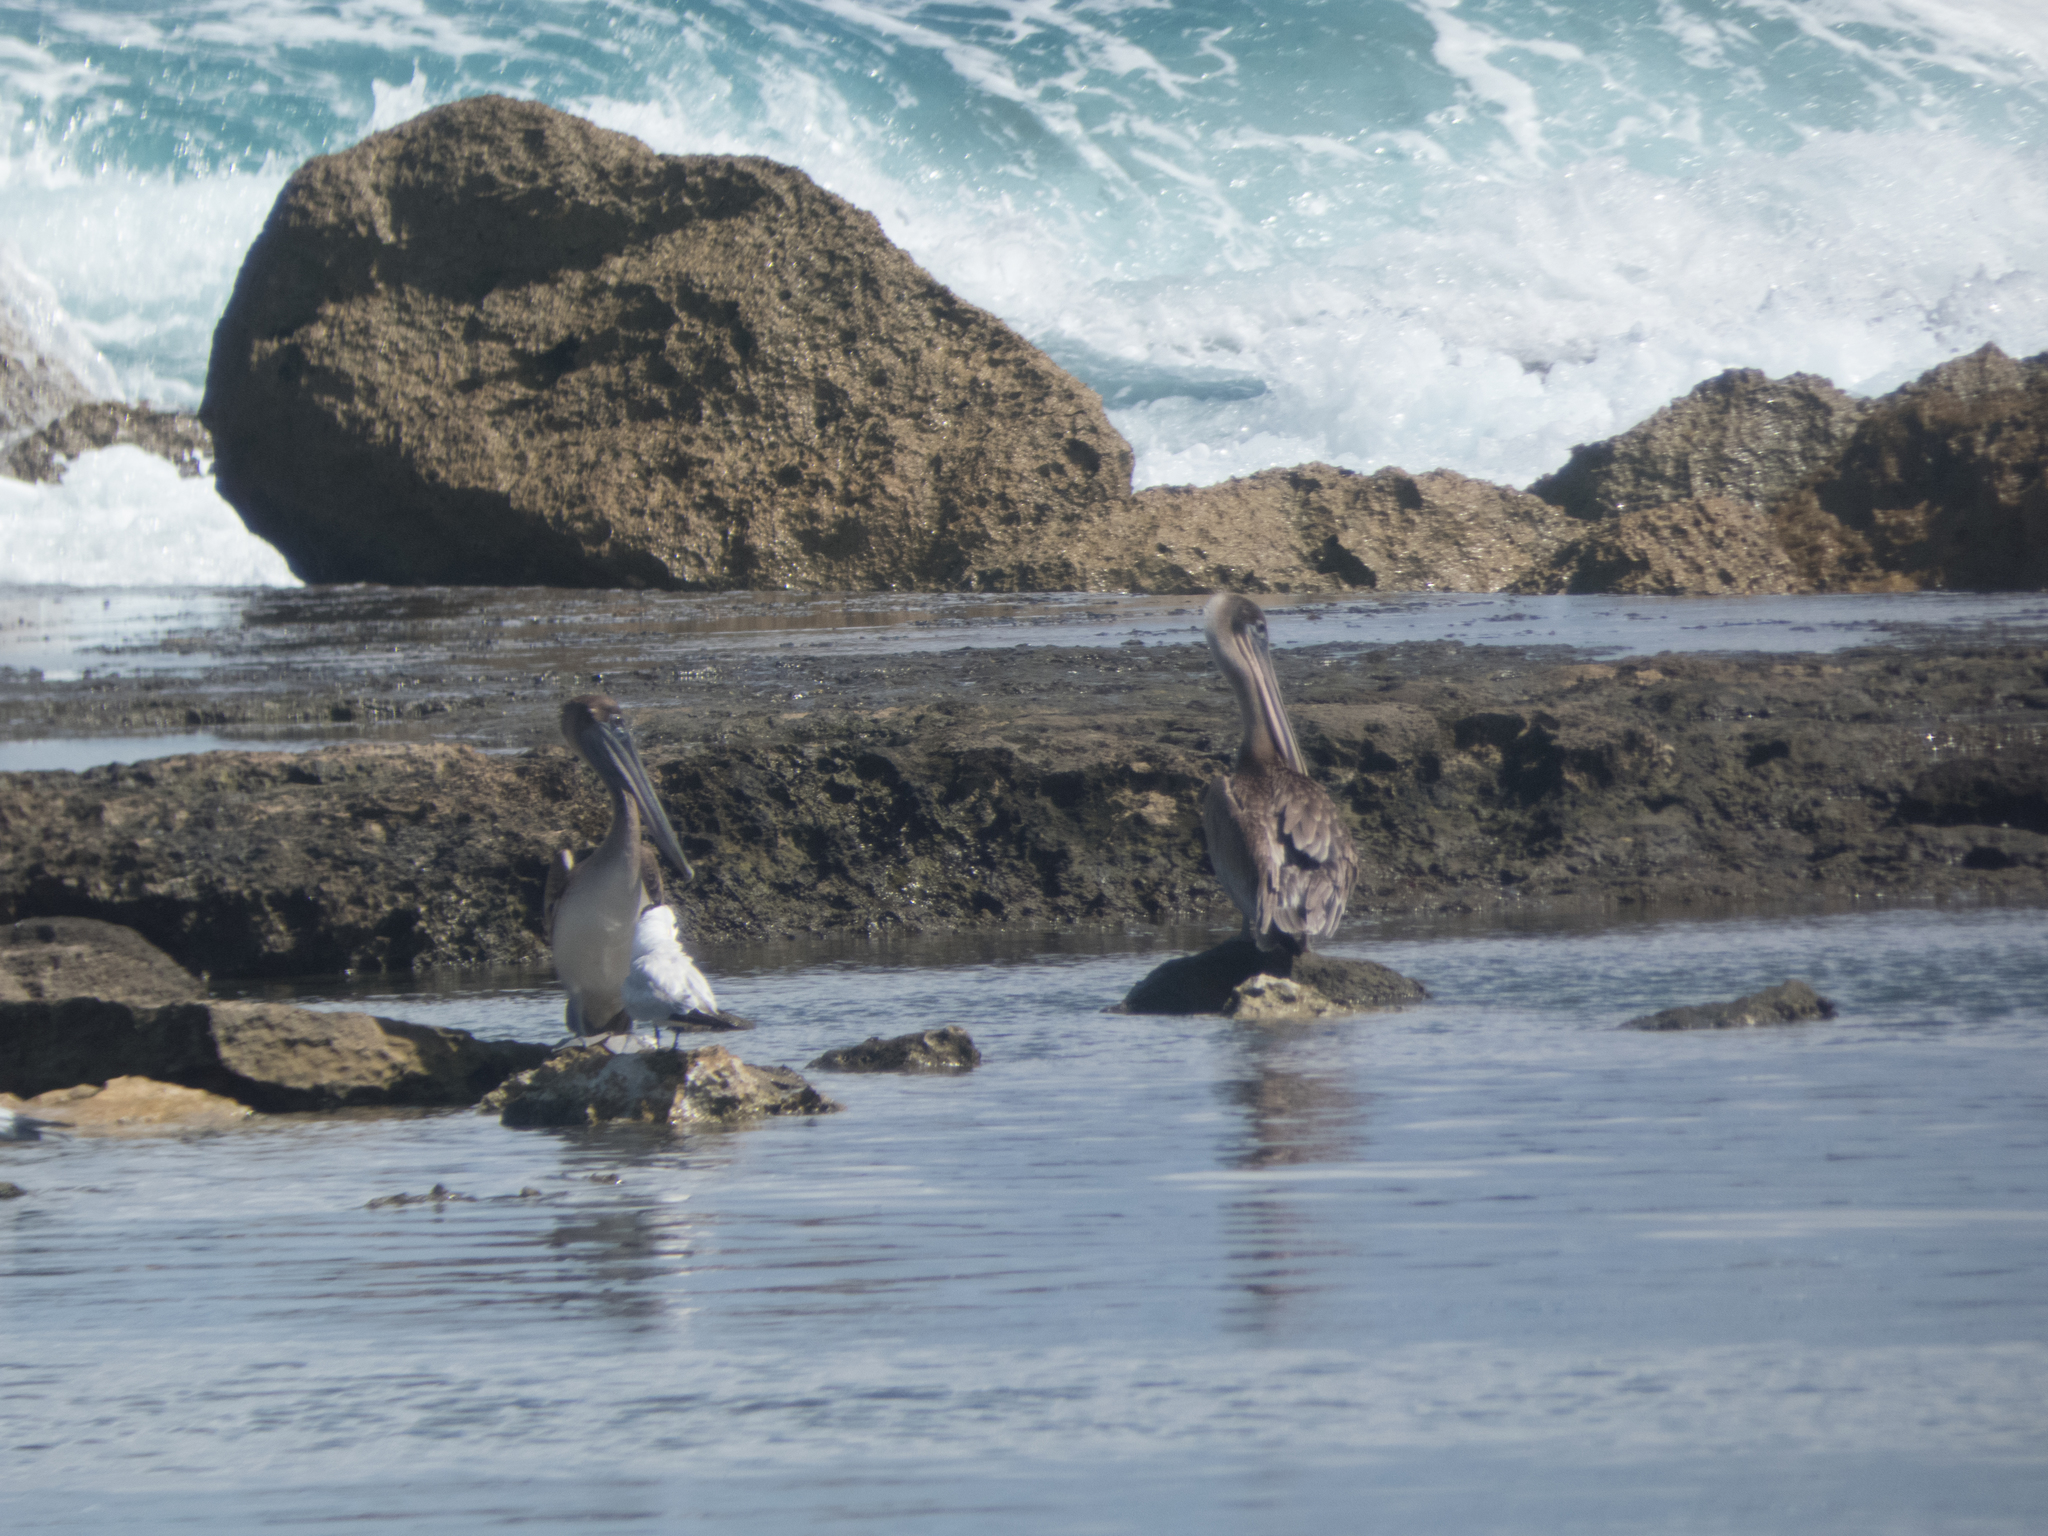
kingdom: Animalia
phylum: Chordata
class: Aves
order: Pelecaniformes
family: Pelecanidae
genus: Pelecanus
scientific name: Pelecanus occidentalis
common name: Brown pelican
